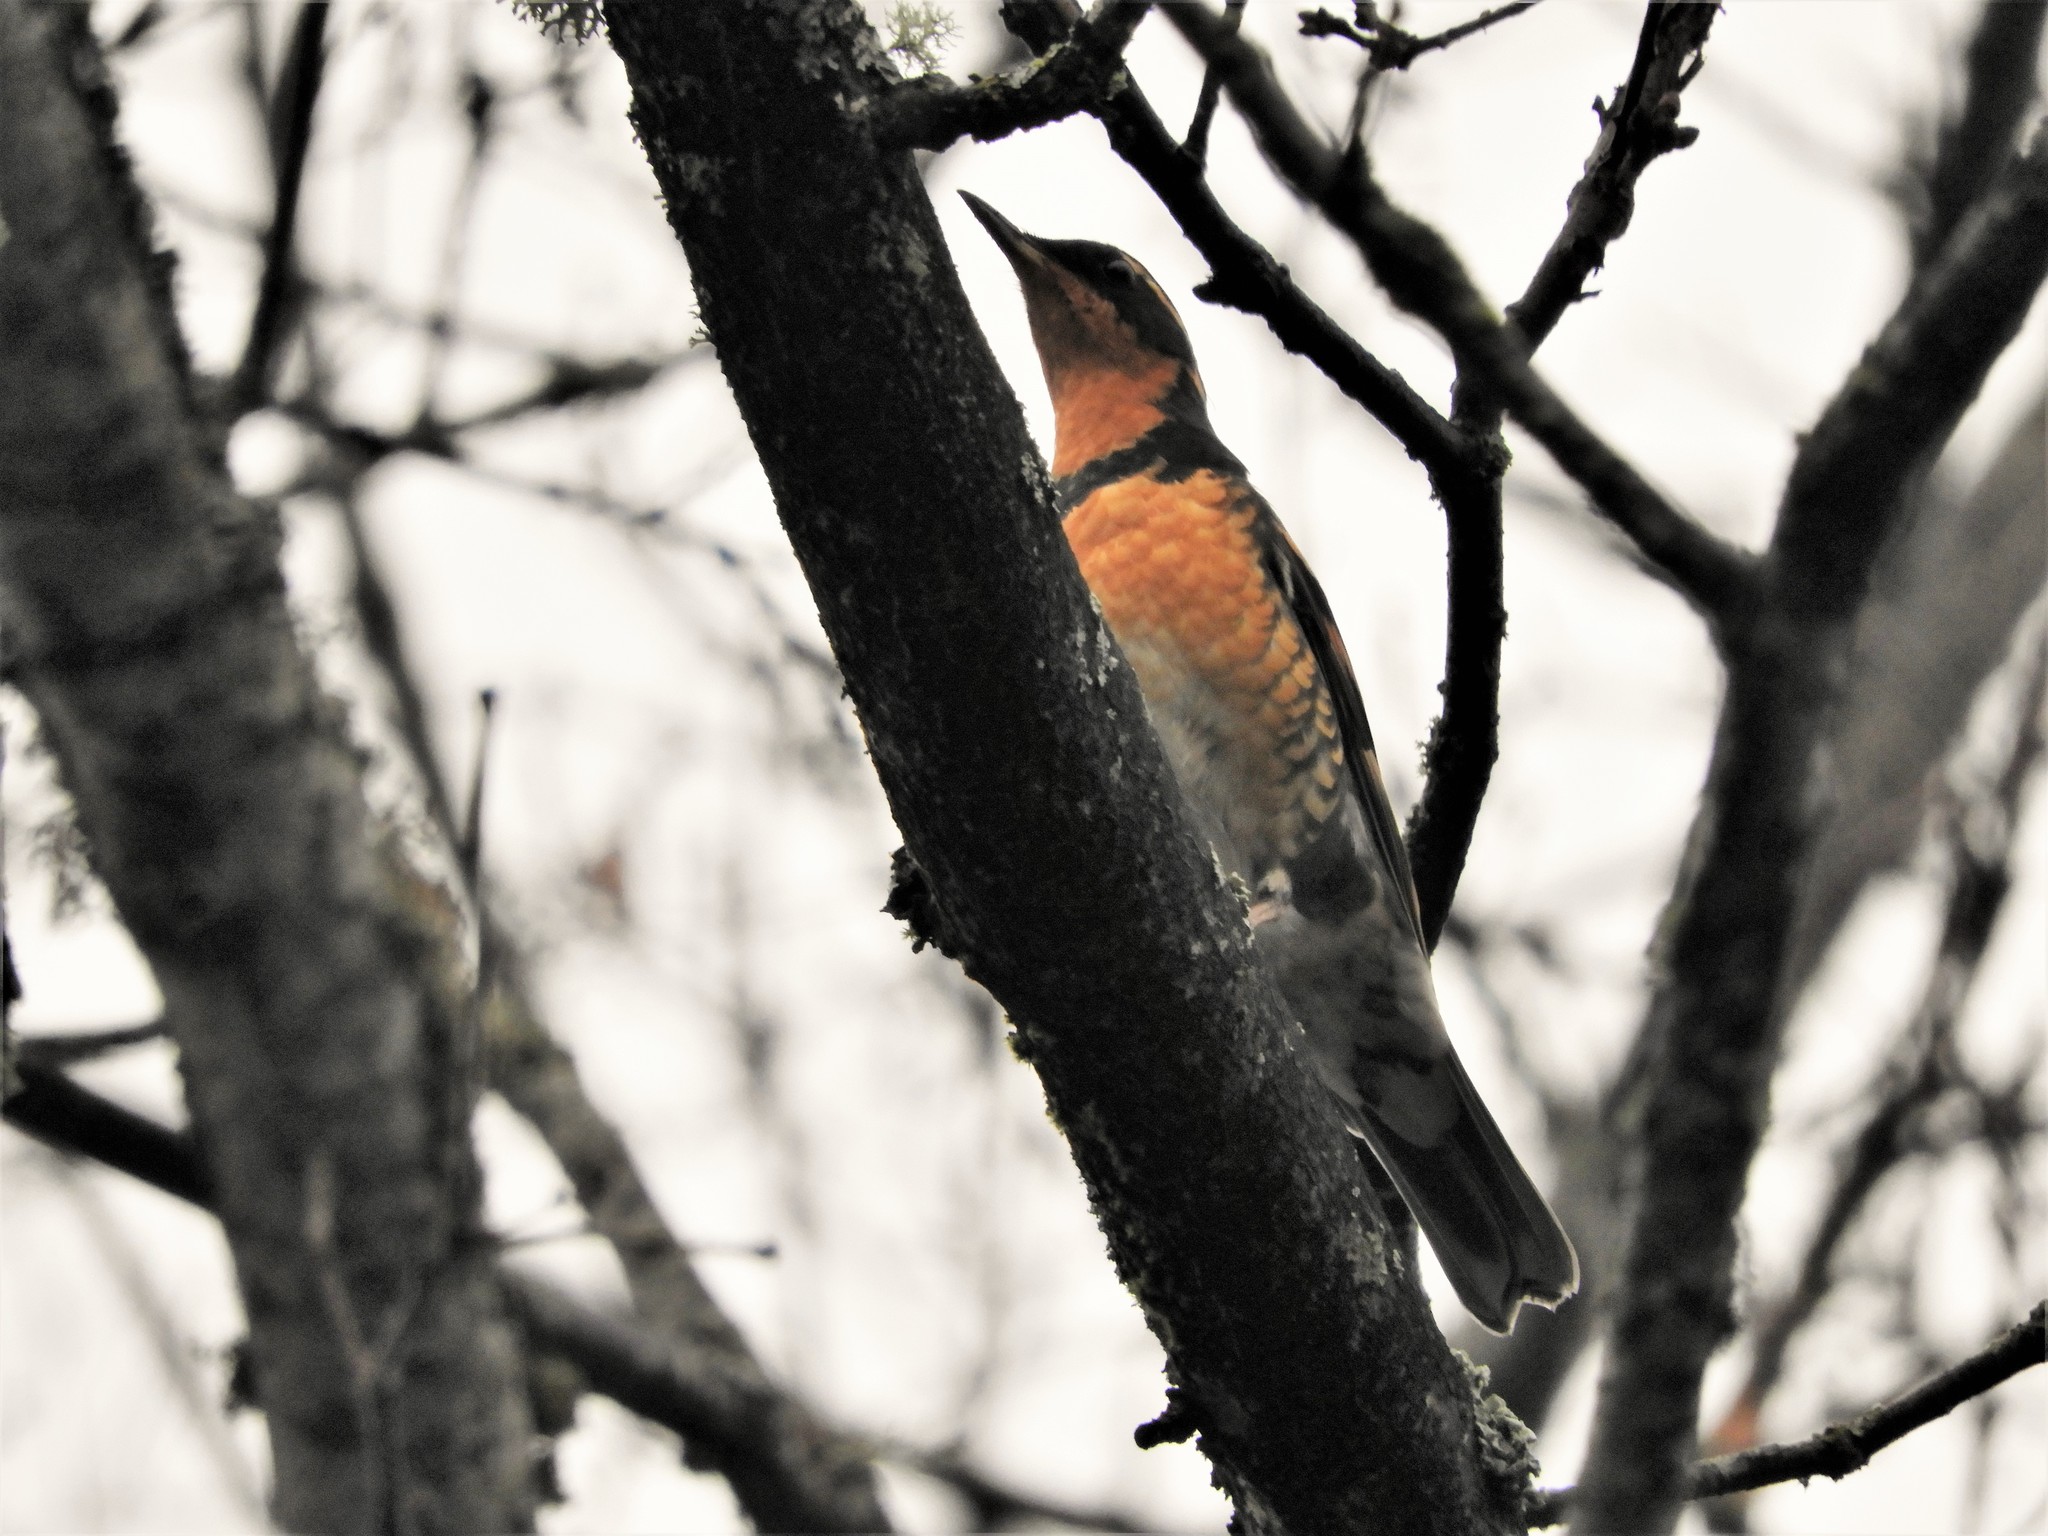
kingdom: Animalia
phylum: Chordata
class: Aves
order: Passeriformes
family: Turdidae
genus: Ixoreus
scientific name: Ixoreus naevius
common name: Varied thrush
